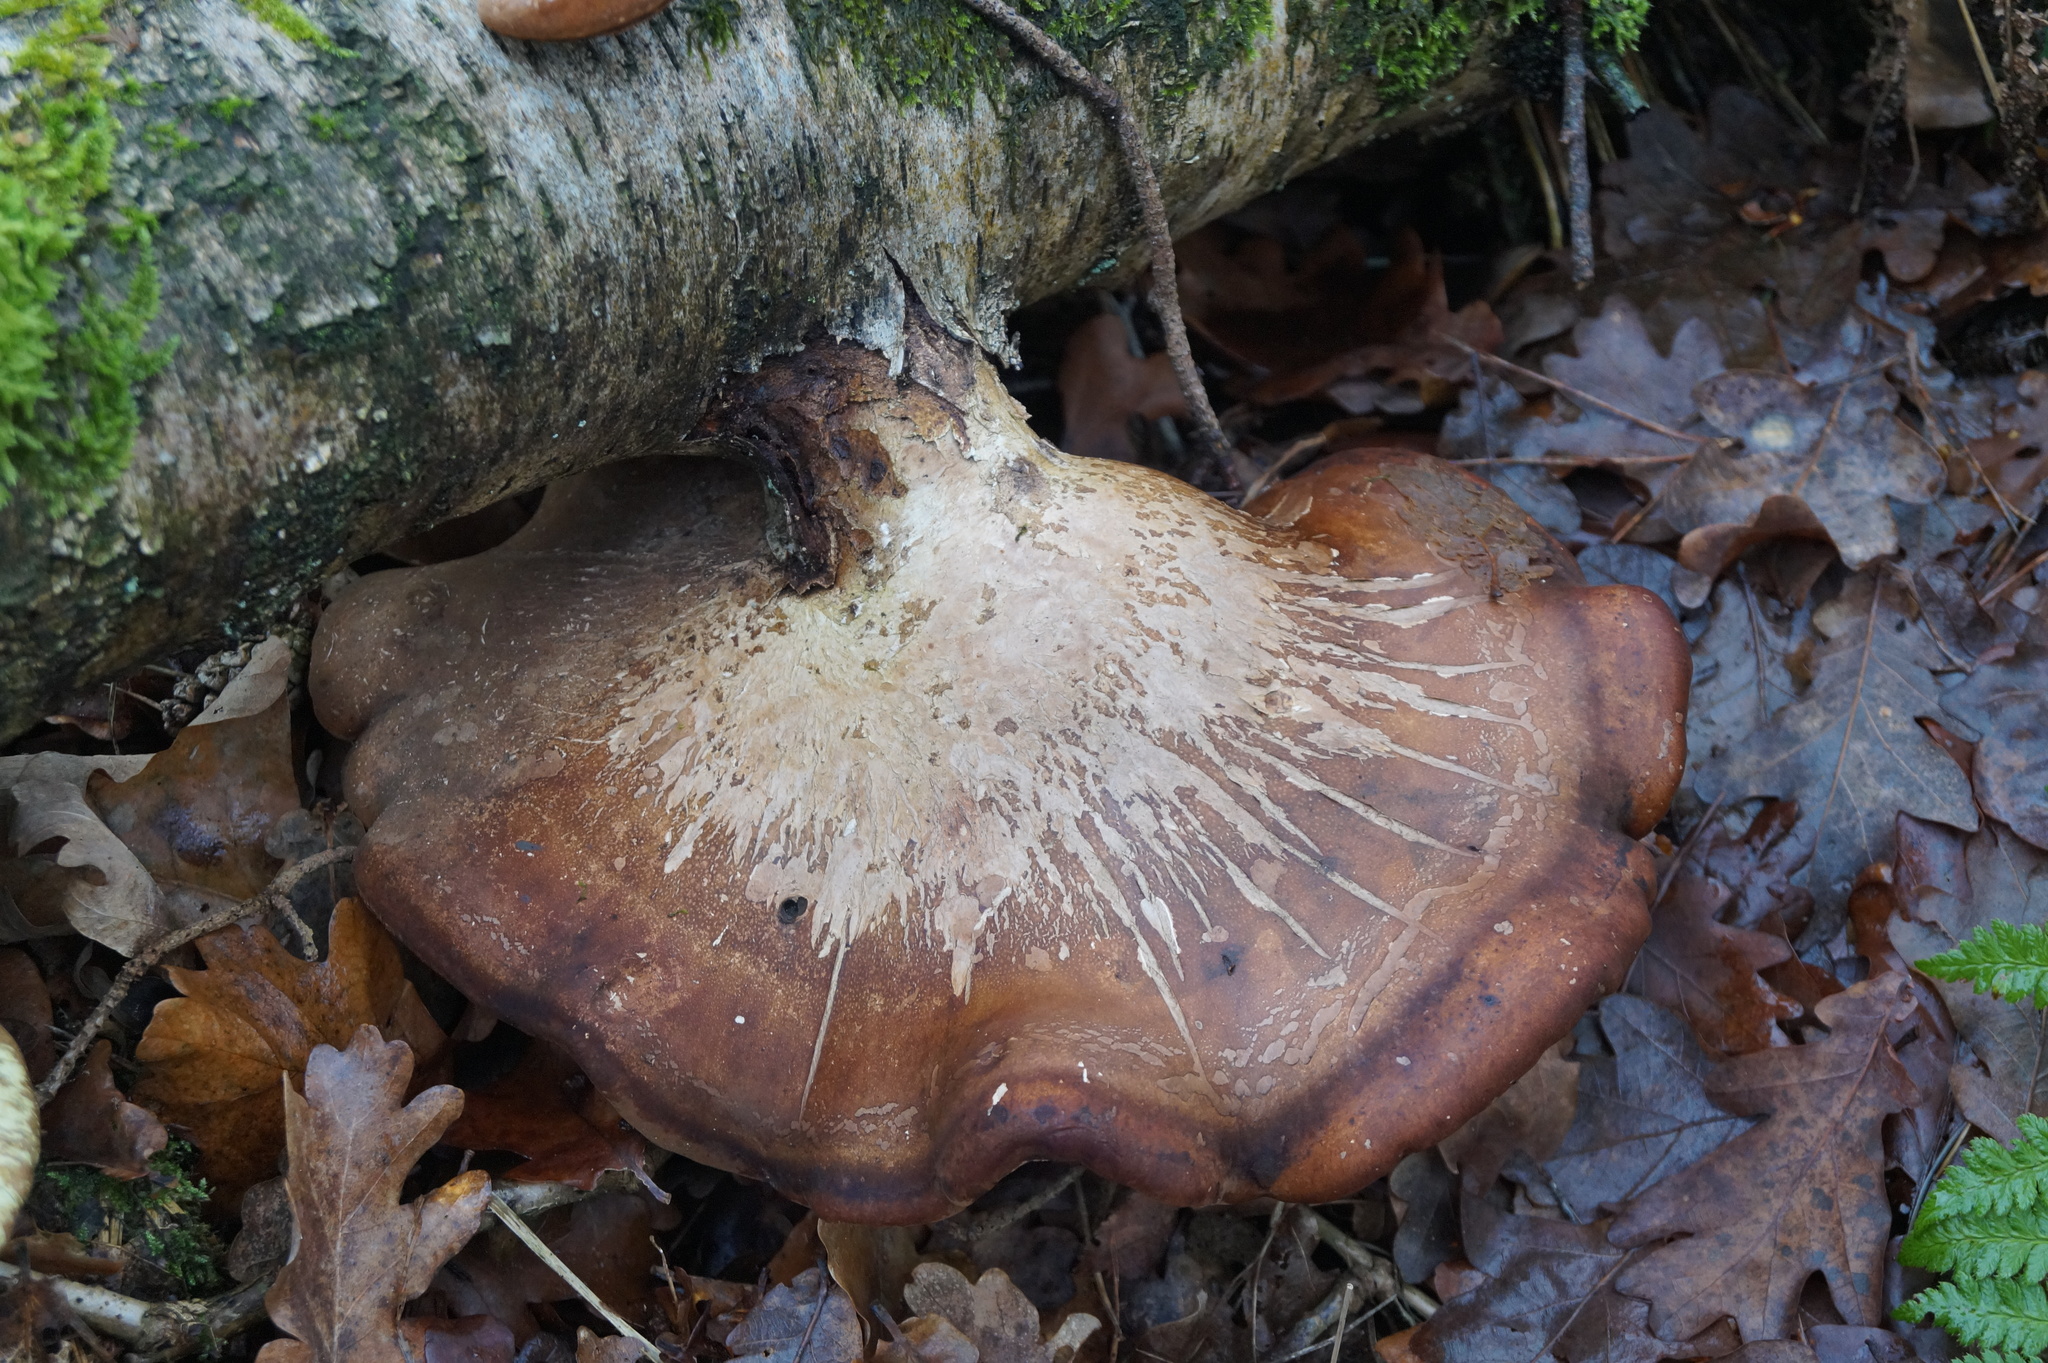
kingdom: Fungi
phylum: Basidiomycota
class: Agaricomycetes
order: Polyporales
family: Fomitopsidaceae
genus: Fomitopsis
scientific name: Fomitopsis betulina
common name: Birch polypore
